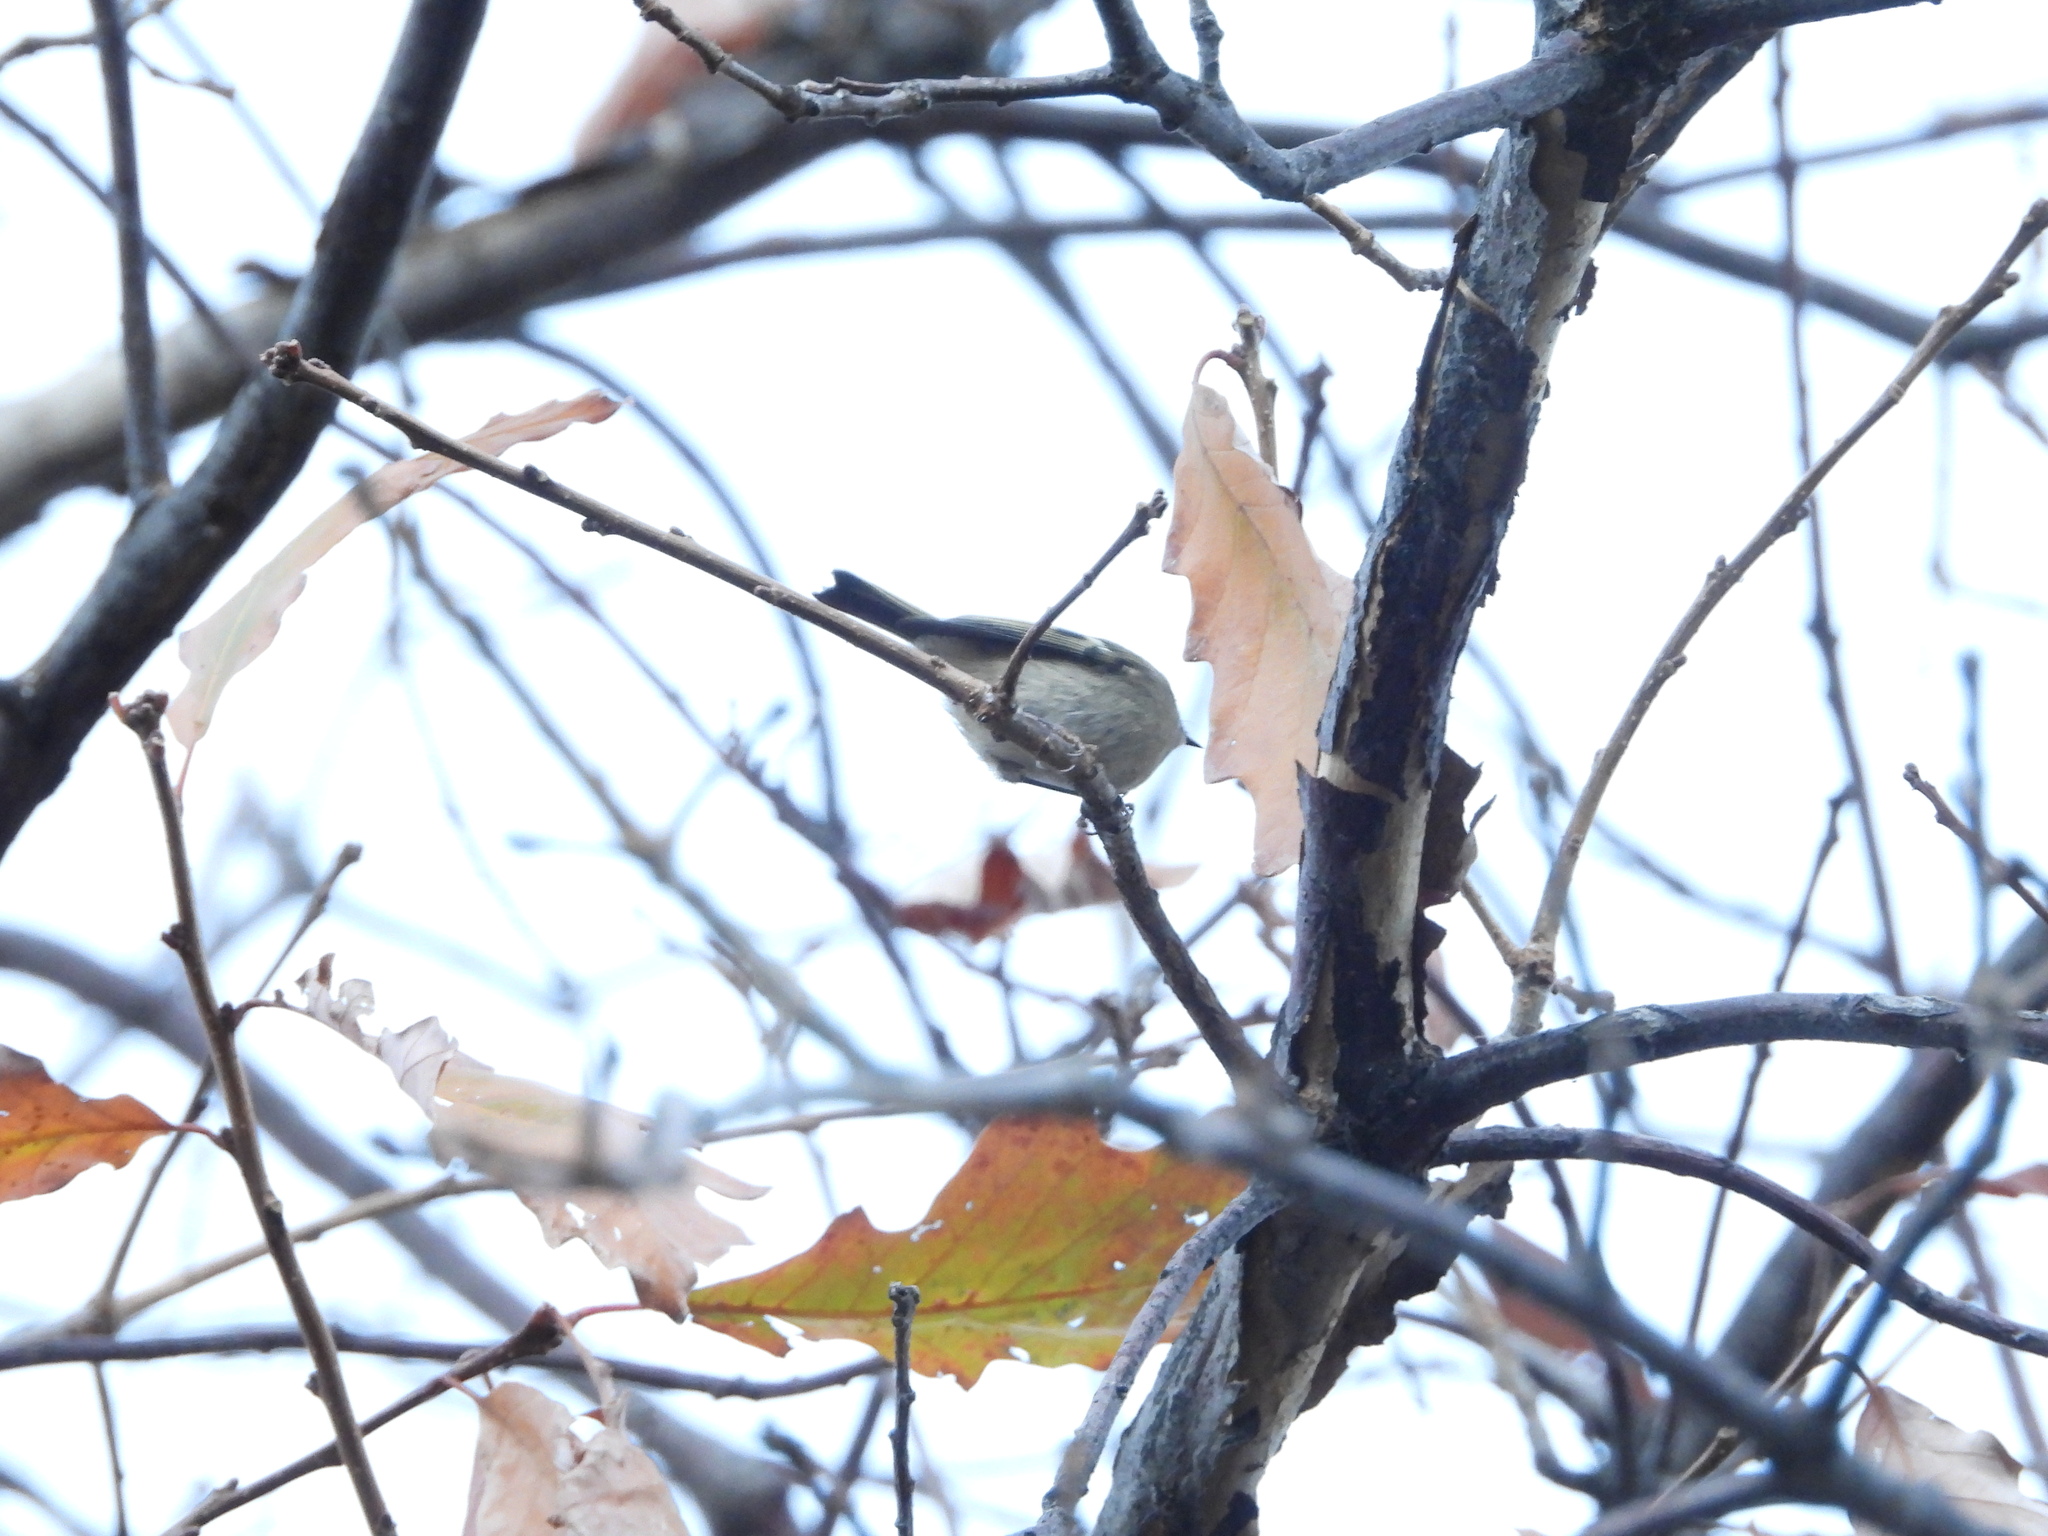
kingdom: Animalia
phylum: Chordata
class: Aves
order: Passeriformes
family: Regulidae
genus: Regulus
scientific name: Regulus satrapa
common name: Golden-crowned kinglet
